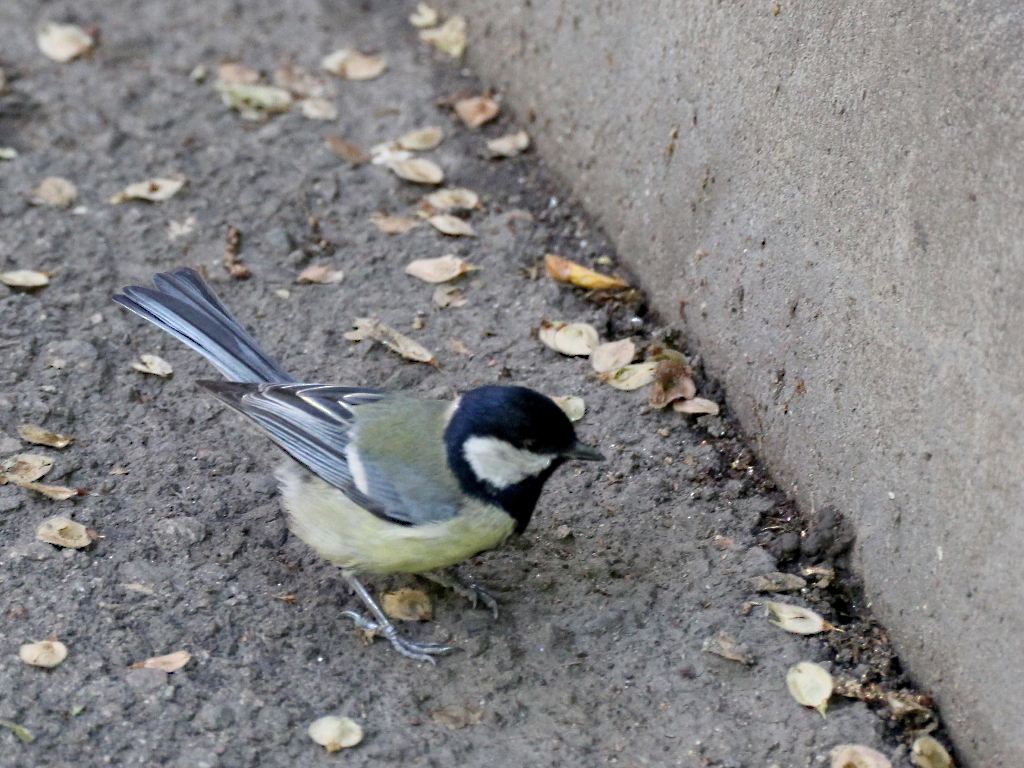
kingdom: Animalia
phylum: Chordata
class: Aves
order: Passeriformes
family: Paridae
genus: Parus
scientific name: Parus major
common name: Great tit
